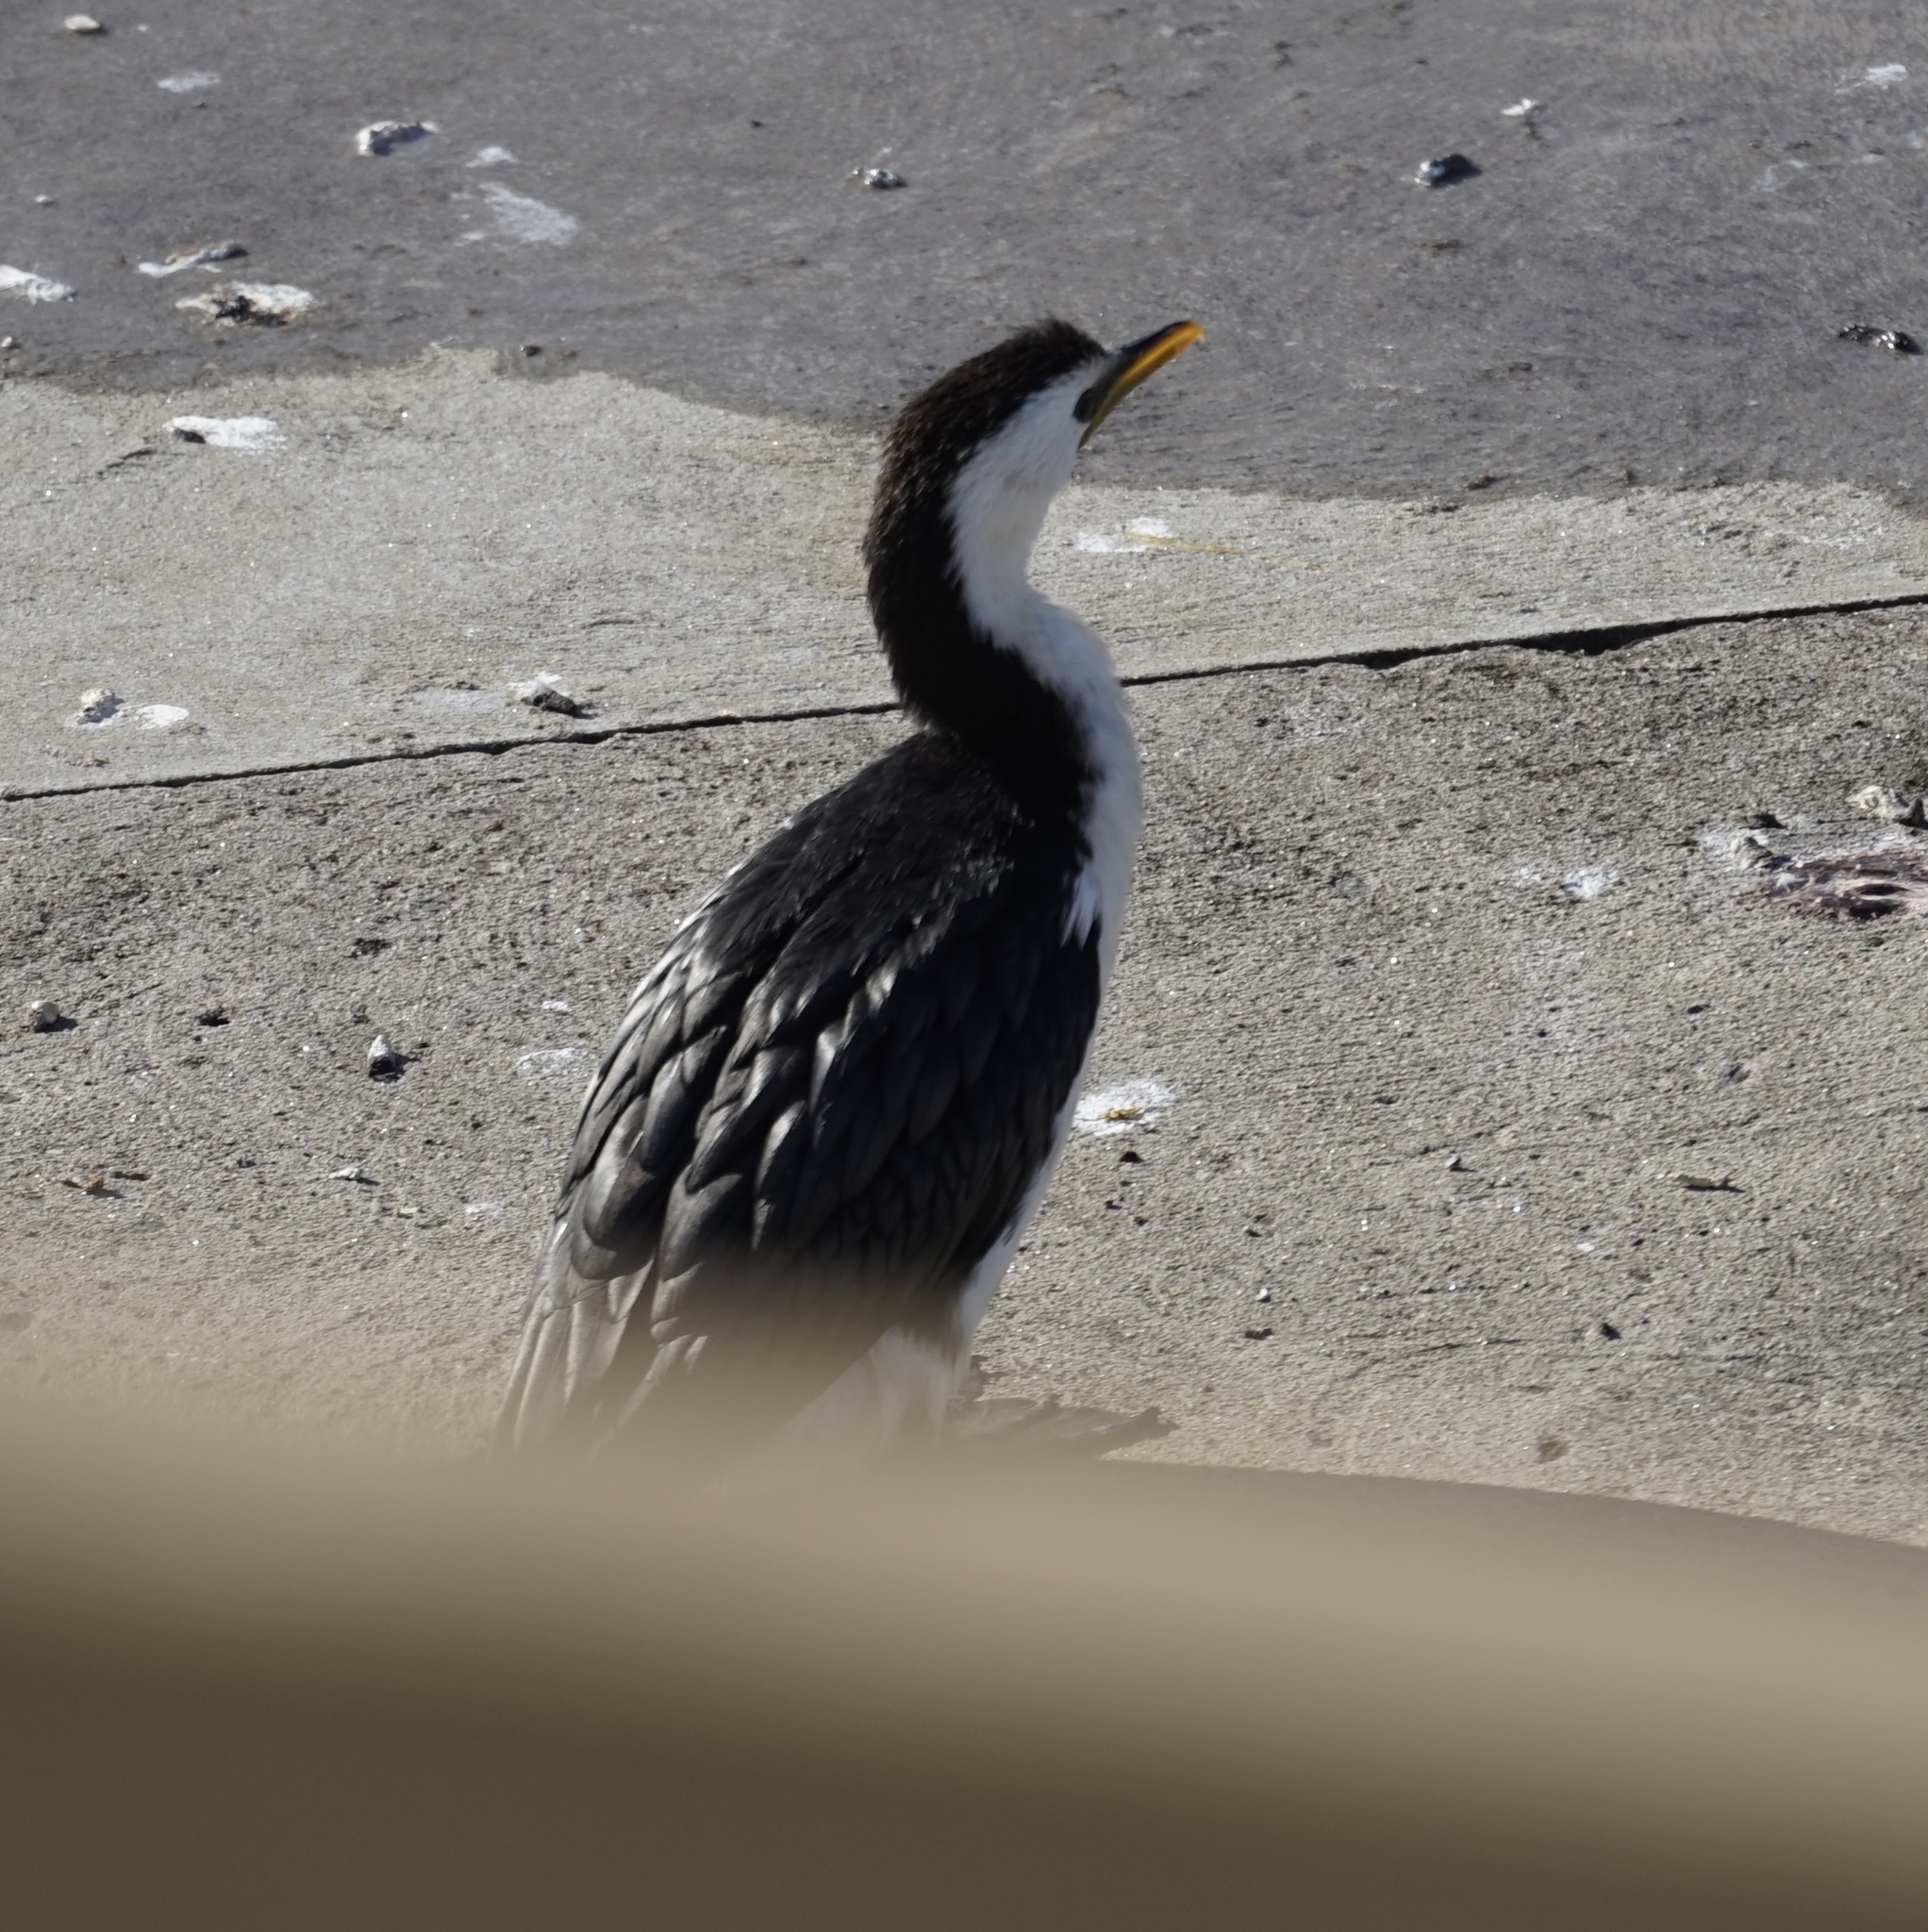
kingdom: Animalia
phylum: Chordata
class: Aves
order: Suliformes
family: Phalacrocoracidae
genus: Microcarbo
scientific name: Microcarbo melanoleucos
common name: Little pied cormorant
